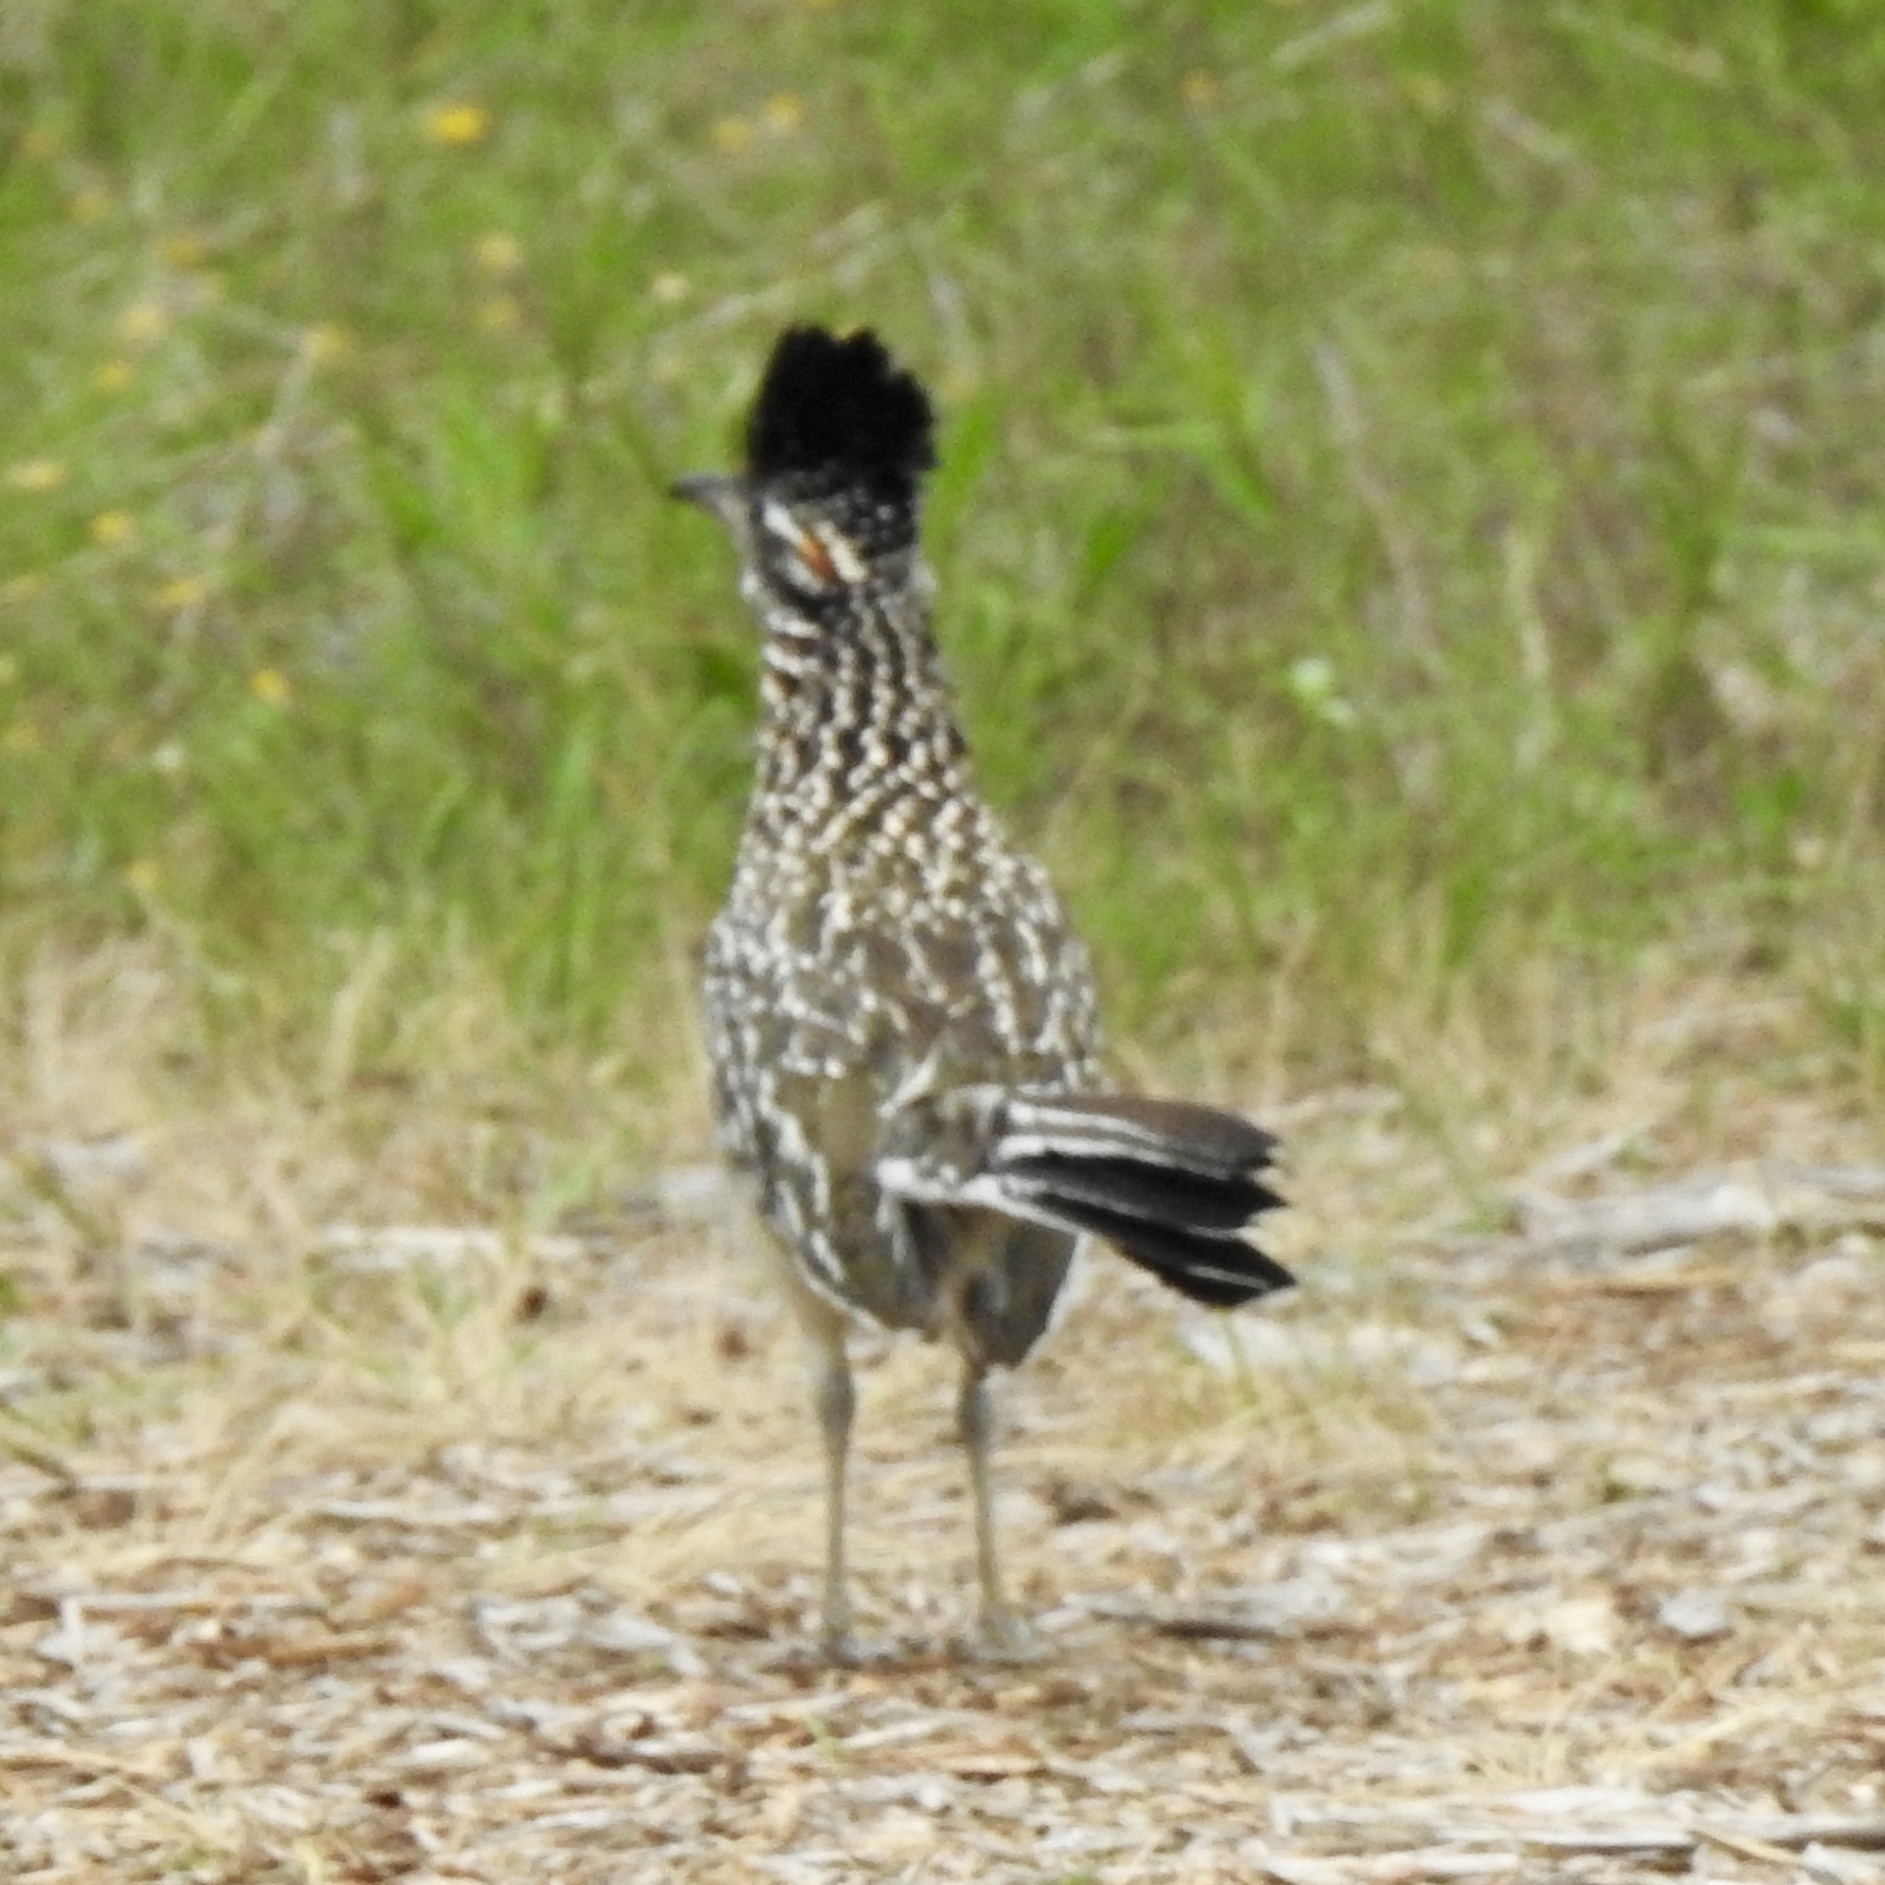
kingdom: Animalia
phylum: Chordata
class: Aves
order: Cuculiformes
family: Cuculidae
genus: Geococcyx
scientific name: Geococcyx californianus
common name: Greater roadrunner
